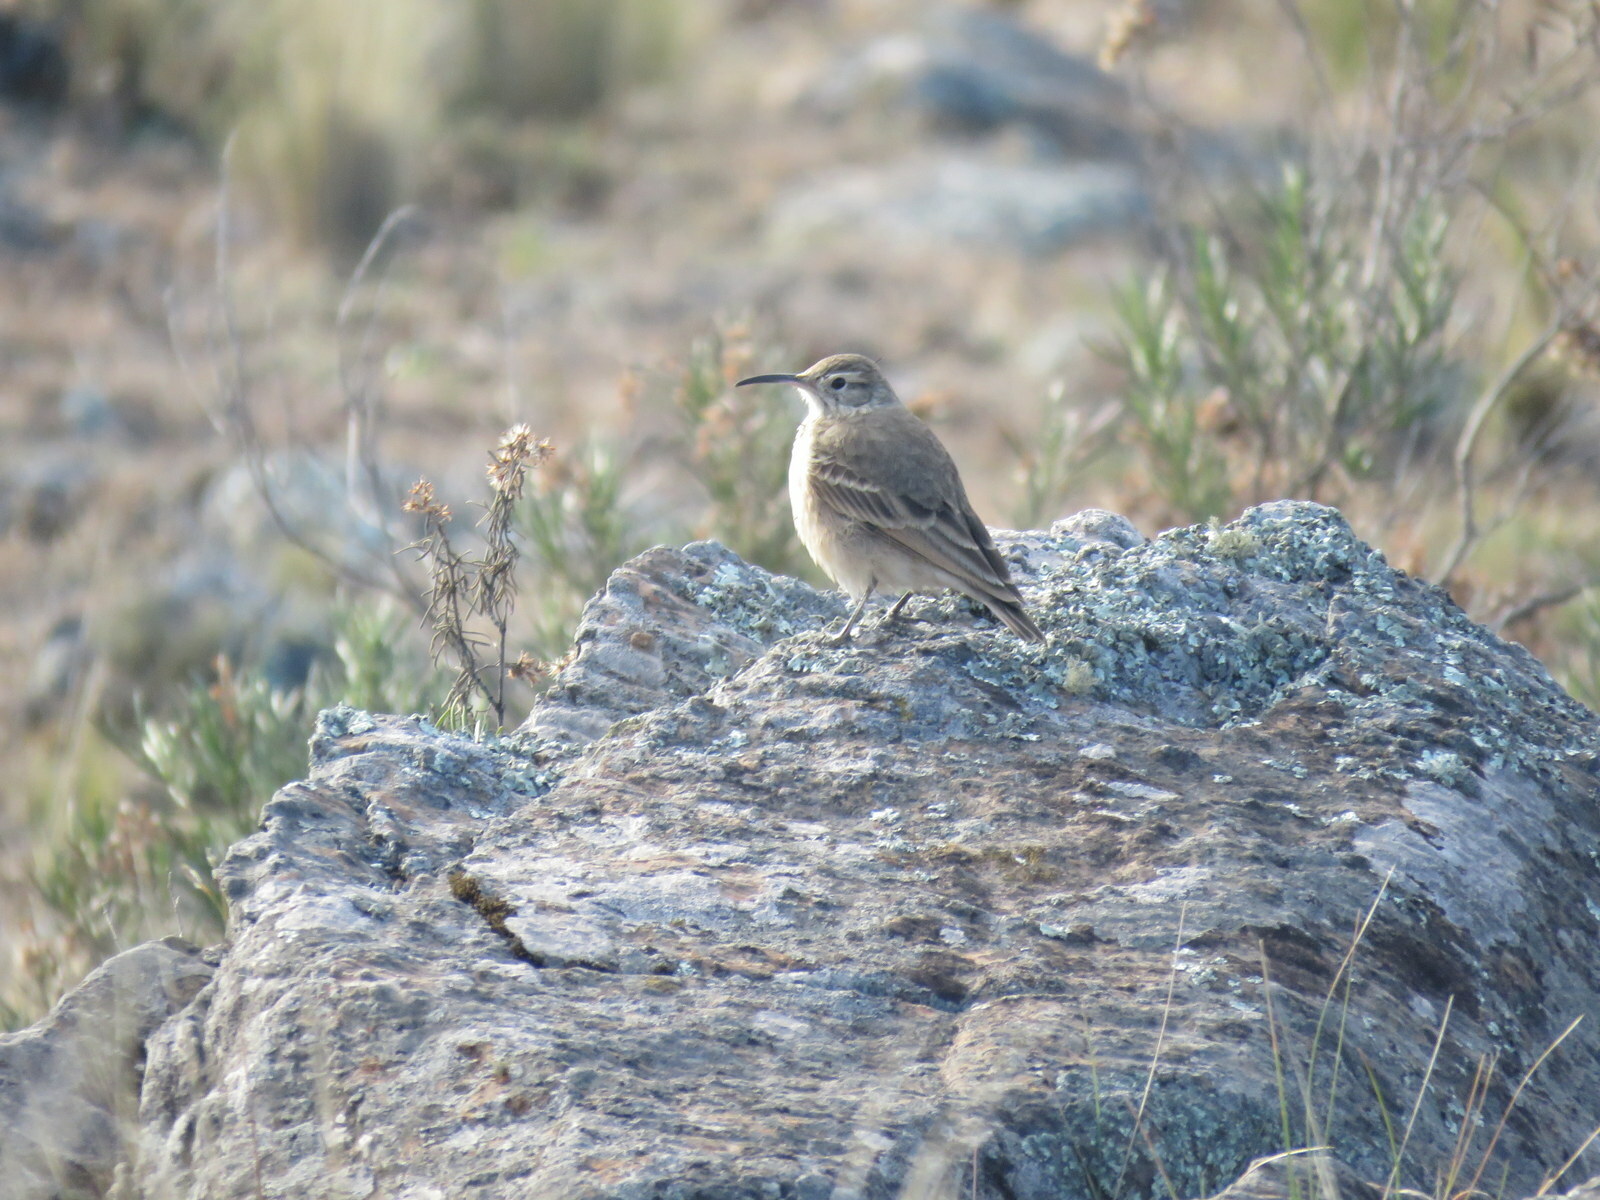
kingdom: Animalia
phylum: Chordata
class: Aves
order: Passeriformes
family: Furnariidae
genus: Geositta
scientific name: Geositta tenuirostris
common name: Slender-billed miner
